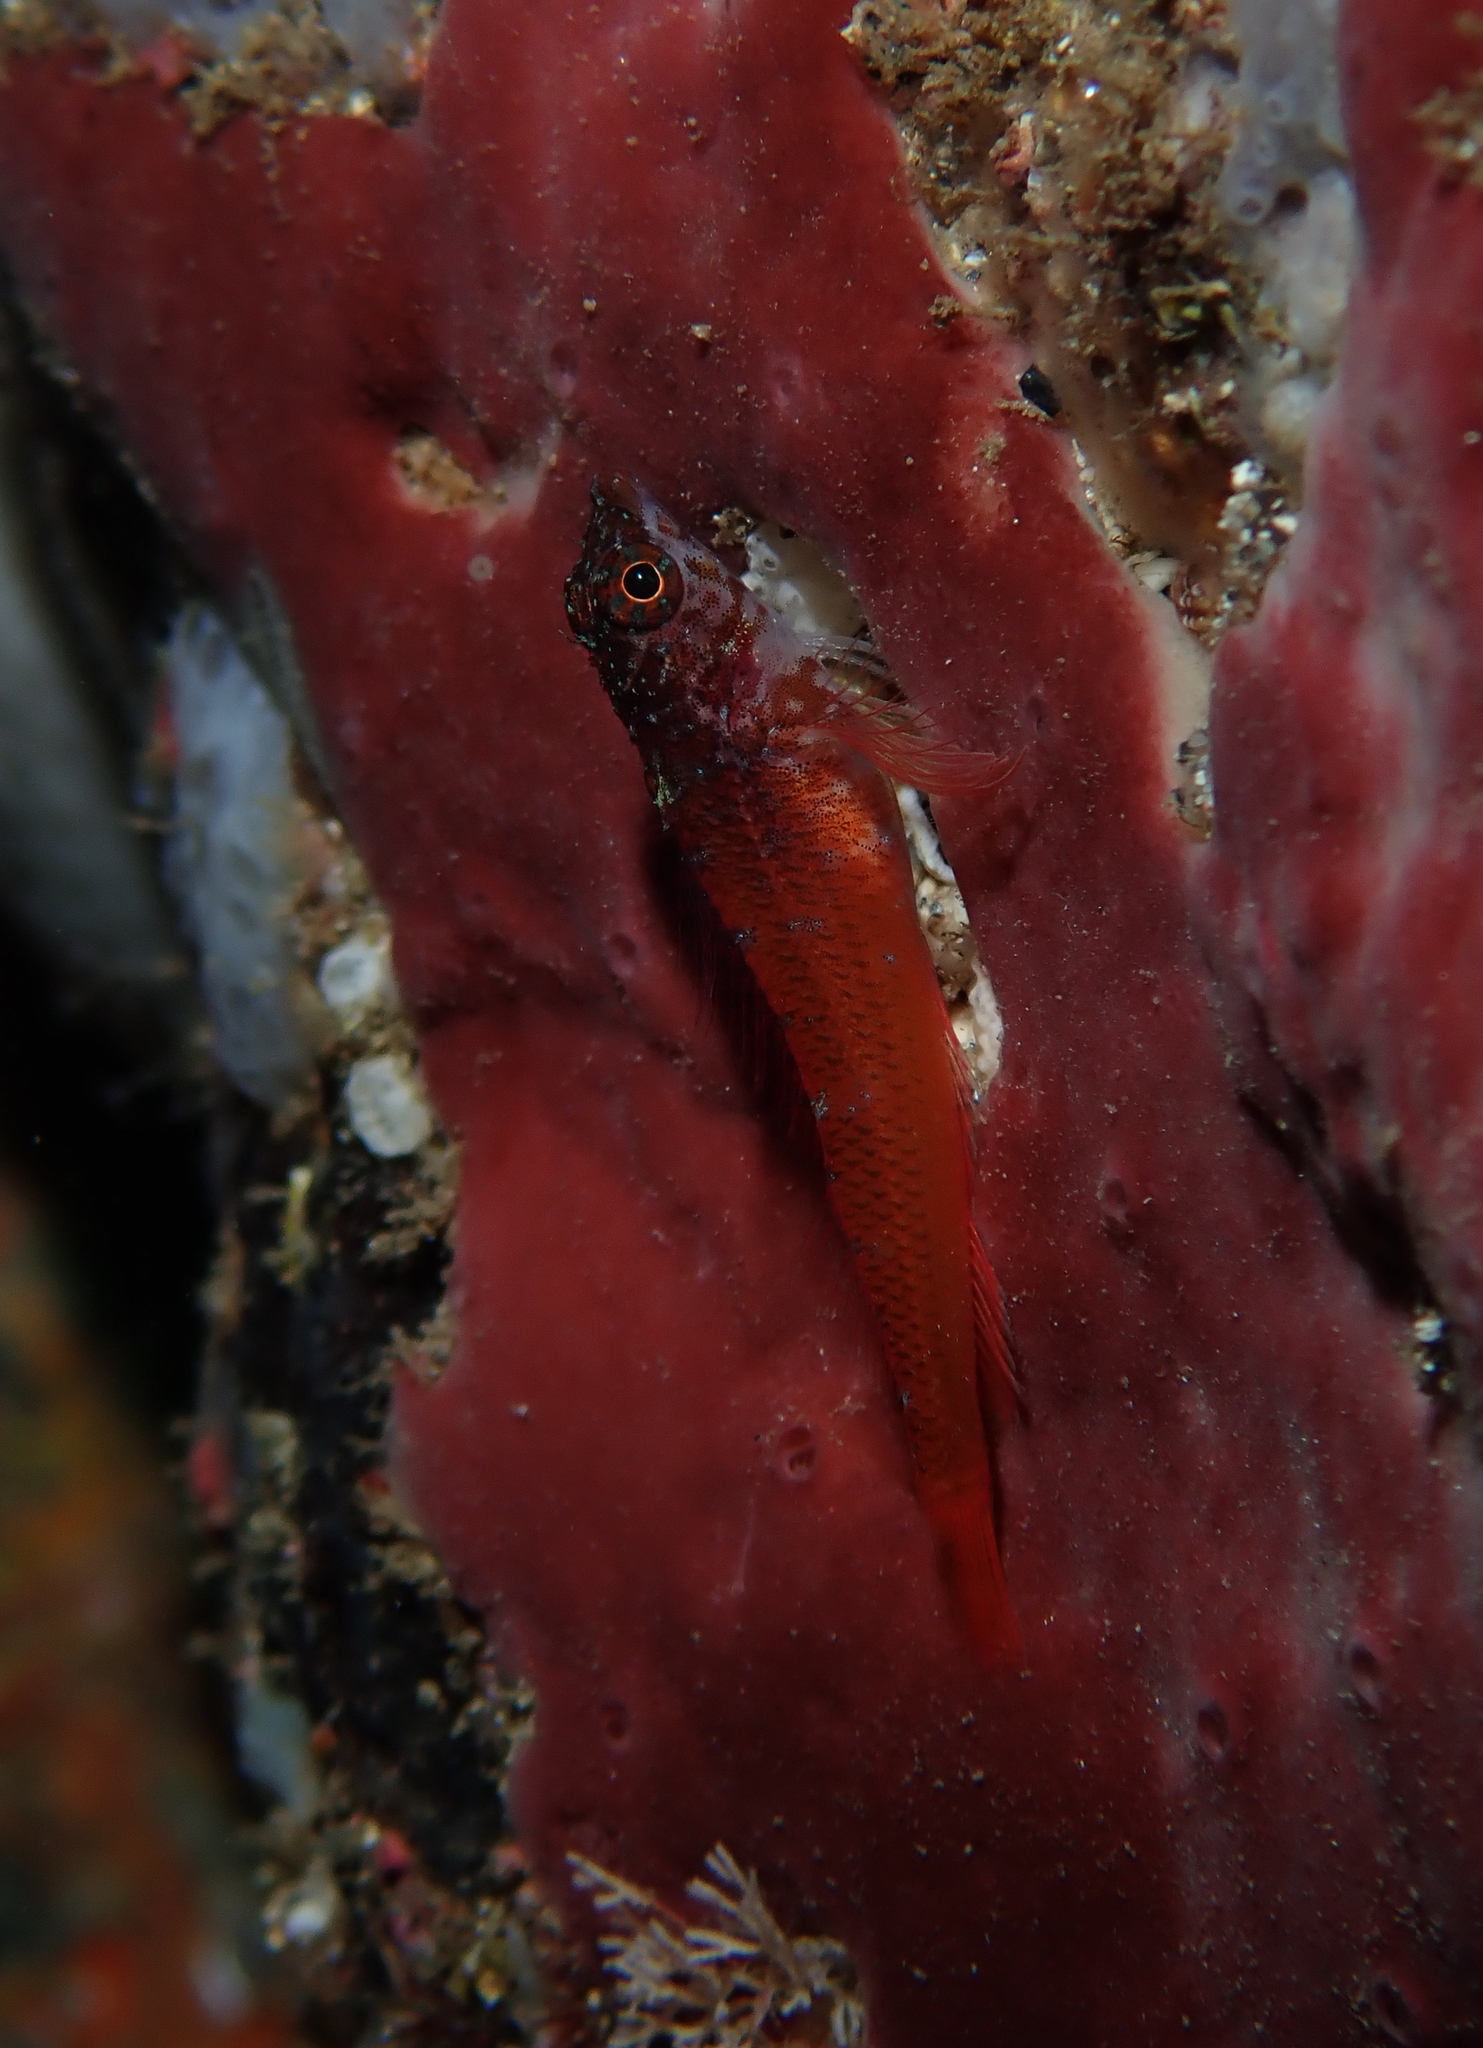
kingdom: Animalia
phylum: Chordata
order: Perciformes
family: Tripterygiidae
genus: Tripterygion
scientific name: Tripterygion melanurum
